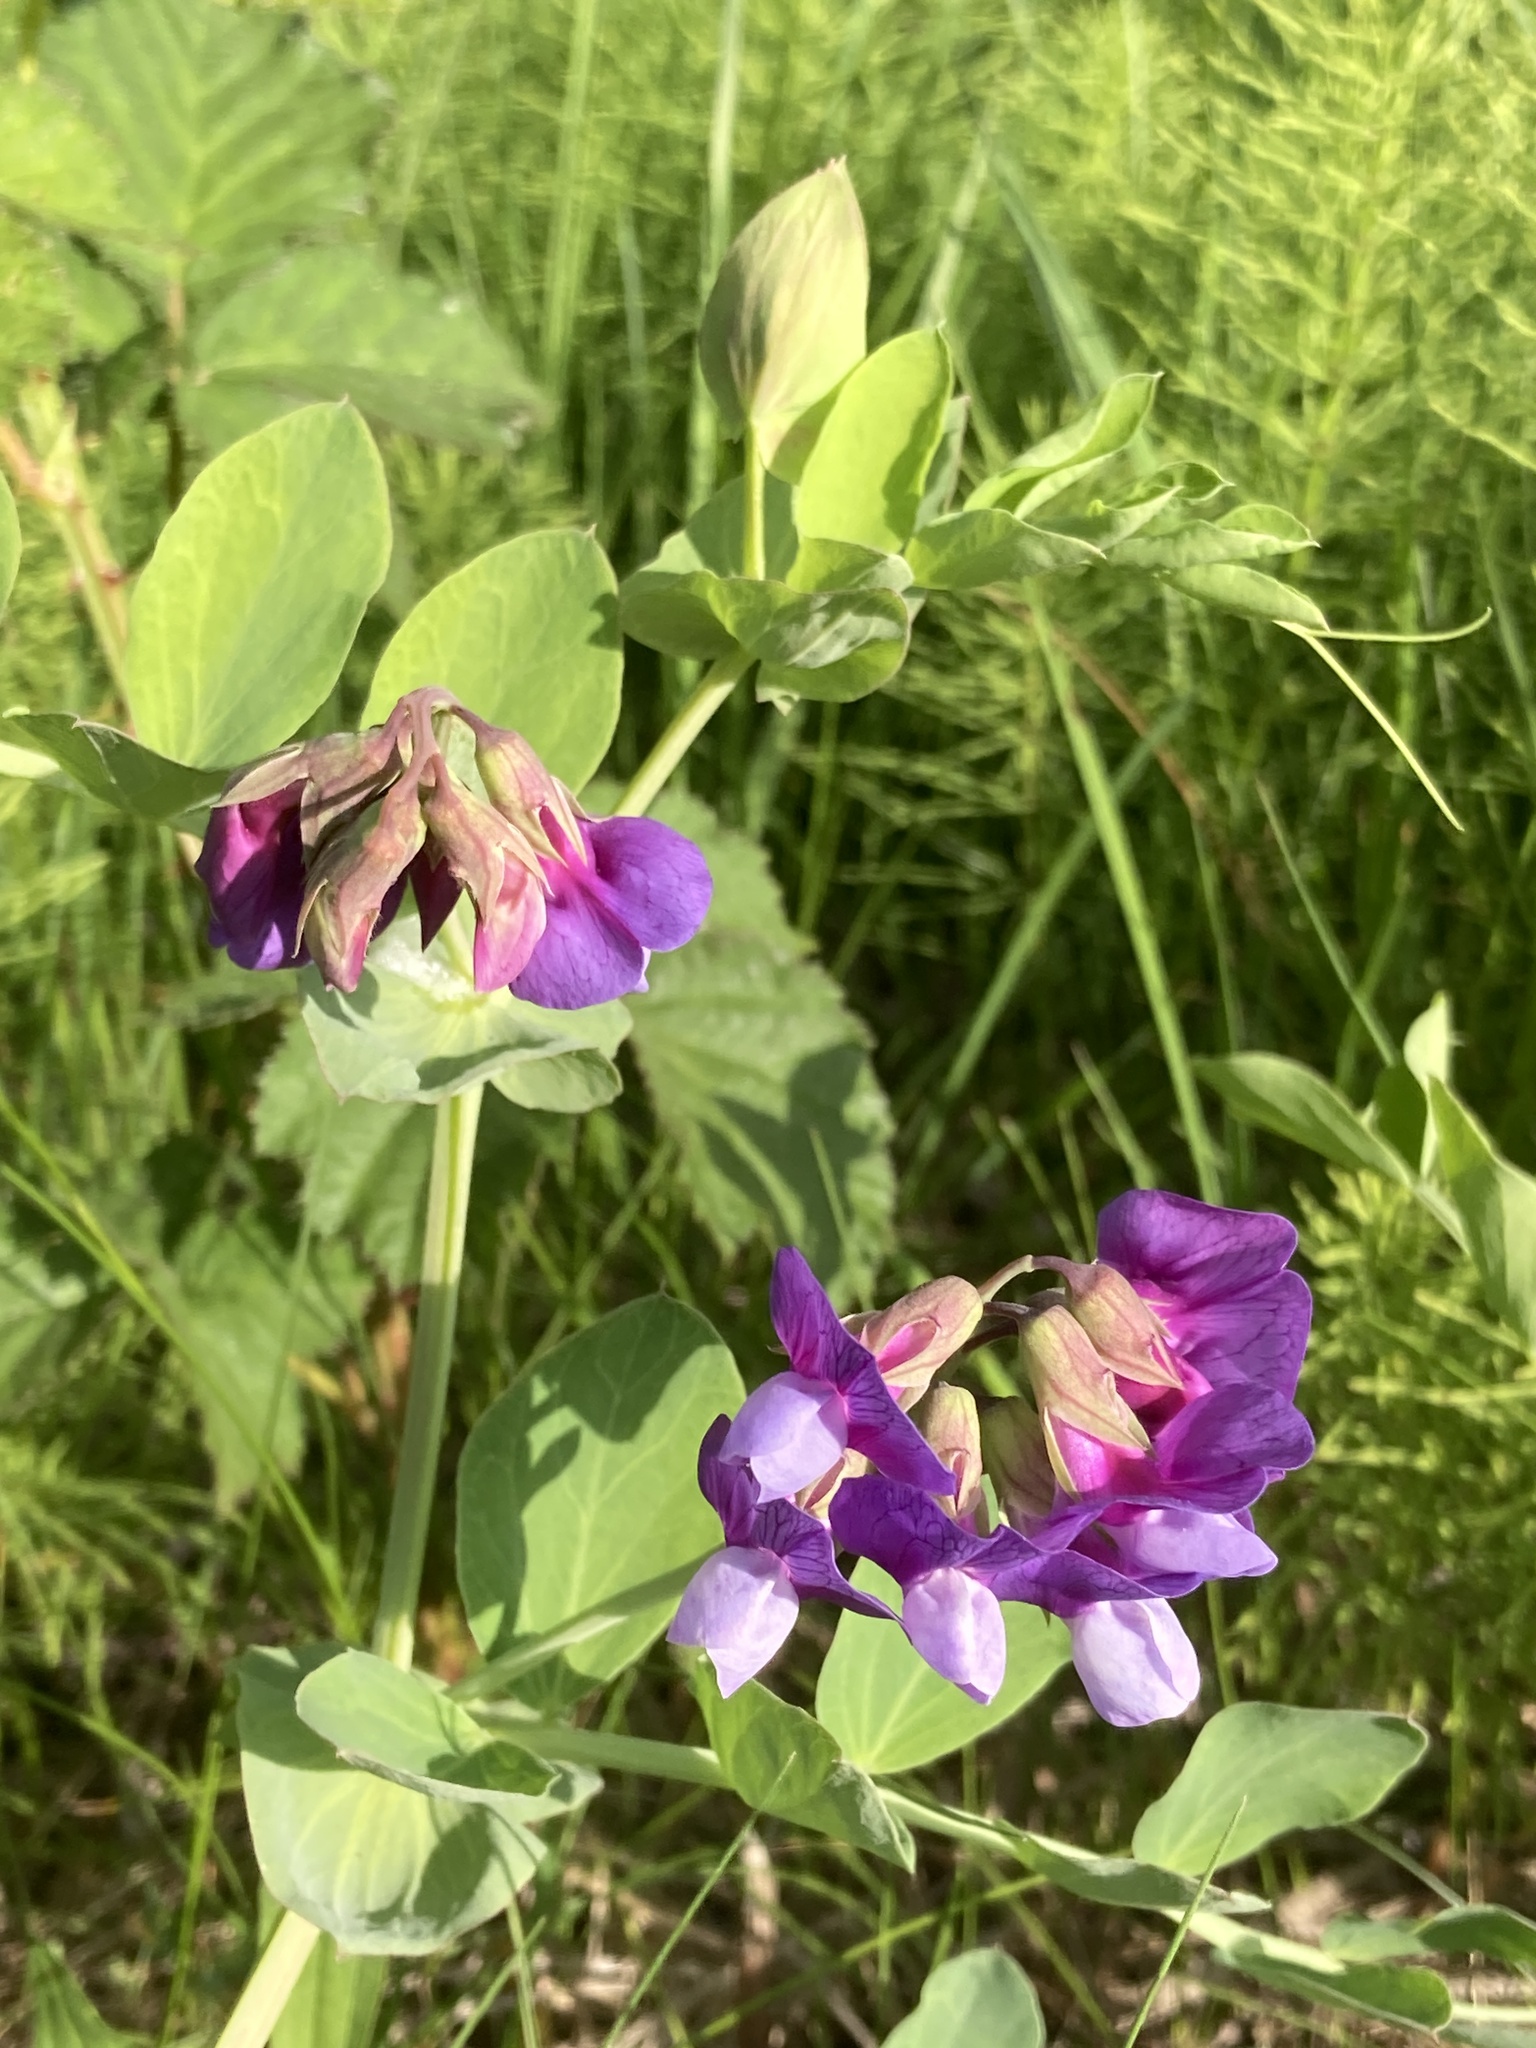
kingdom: Plantae
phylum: Tracheophyta
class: Magnoliopsida
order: Fabales
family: Fabaceae
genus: Lathyrus
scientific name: Lathyrus japonicus
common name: Sea pea
